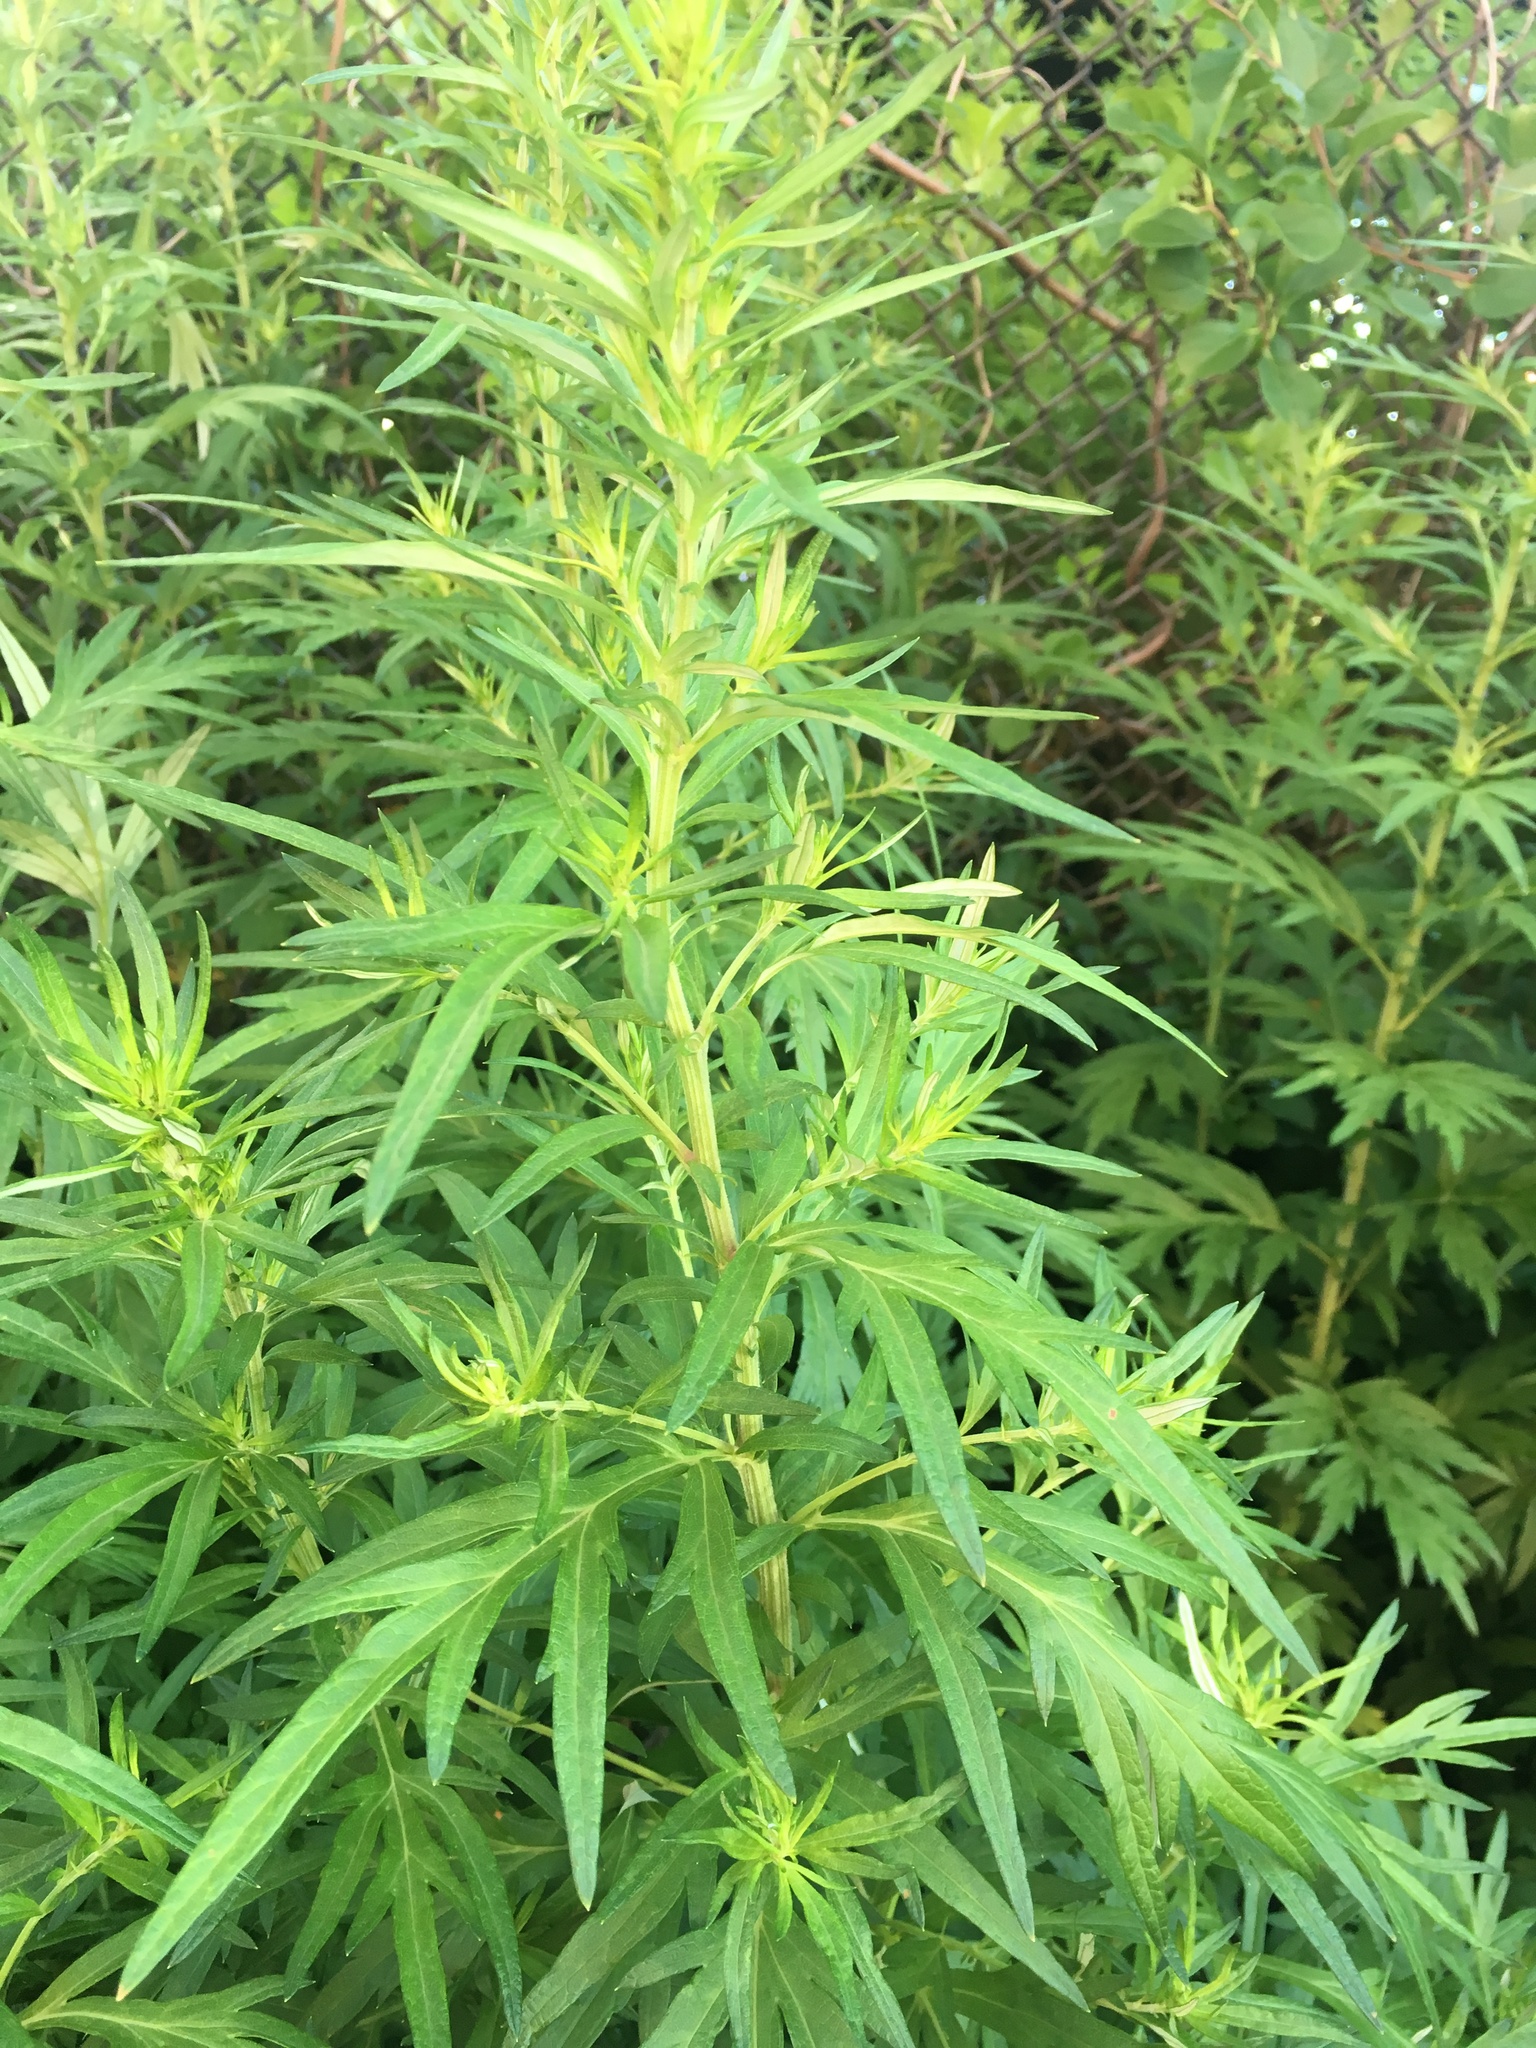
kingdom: Plantae
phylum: Tracheophyta
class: Magnoliopsida
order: Asterales
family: Asteraceae
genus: Artemisia
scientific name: Artemisia vulgaris
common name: Mugwort
